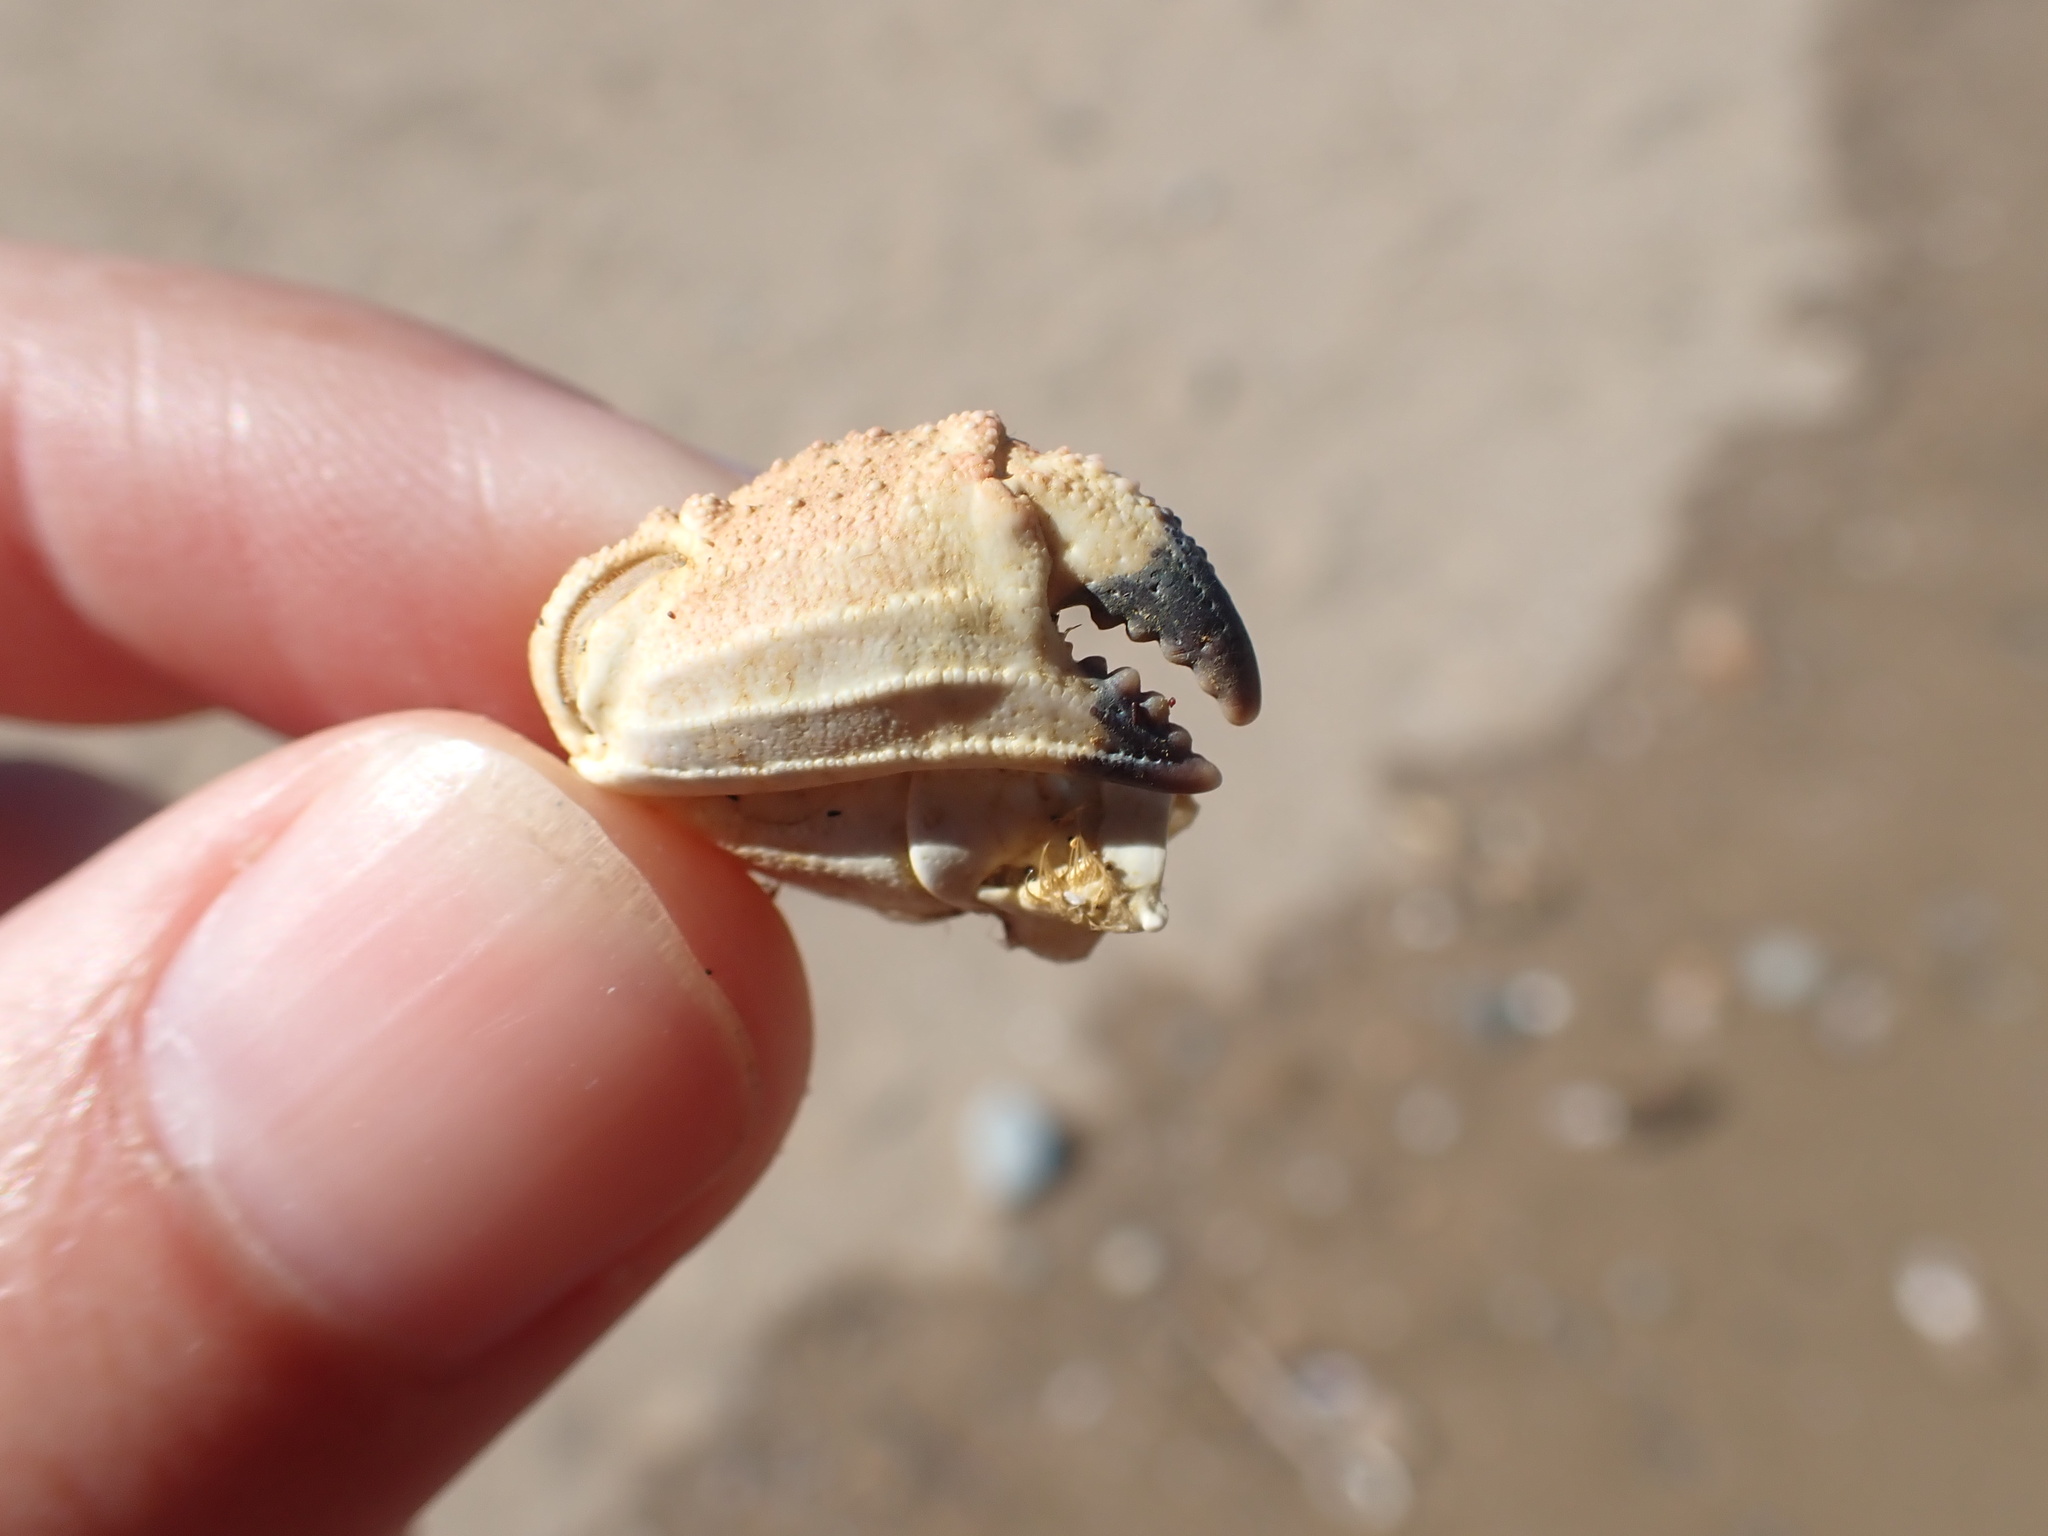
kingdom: Animalia
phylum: Arthropoda
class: Malacostraca
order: Decapoda
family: Cancridae
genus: Metacarcinus
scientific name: Metacarcinus novaezelandiae
